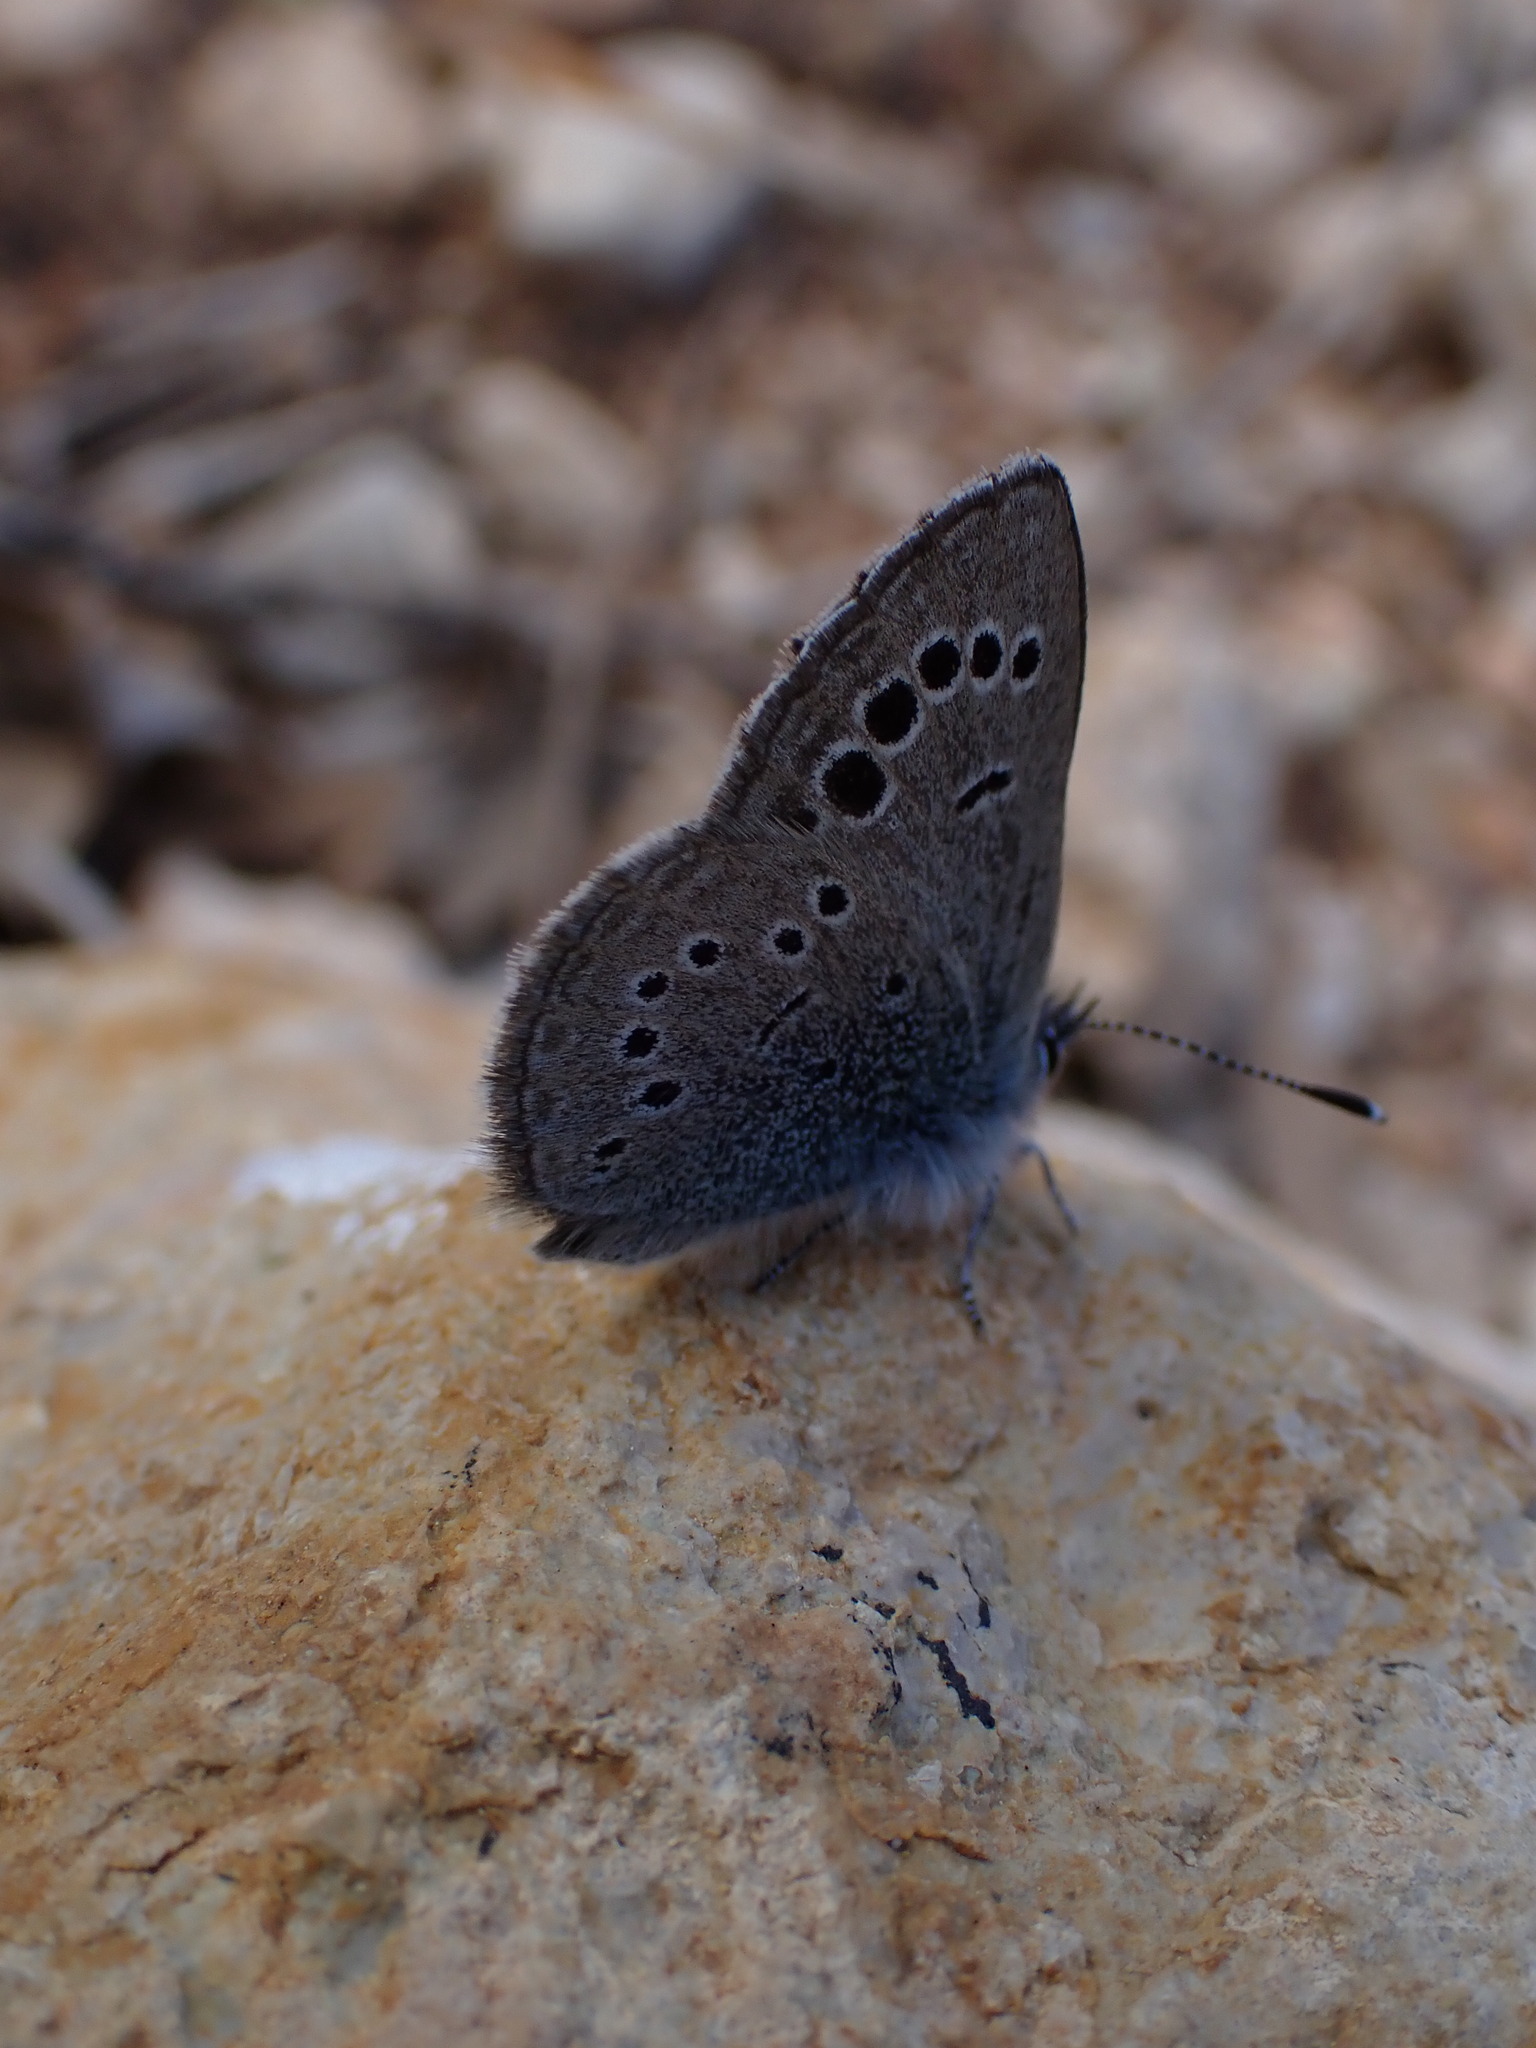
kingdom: Animalia
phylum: Arthropoda
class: Insecta
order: Lepidoptera
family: Lycaenidae
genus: Glaucopsyche
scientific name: Glaucopsyche melanops
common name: Black-eyed blue
